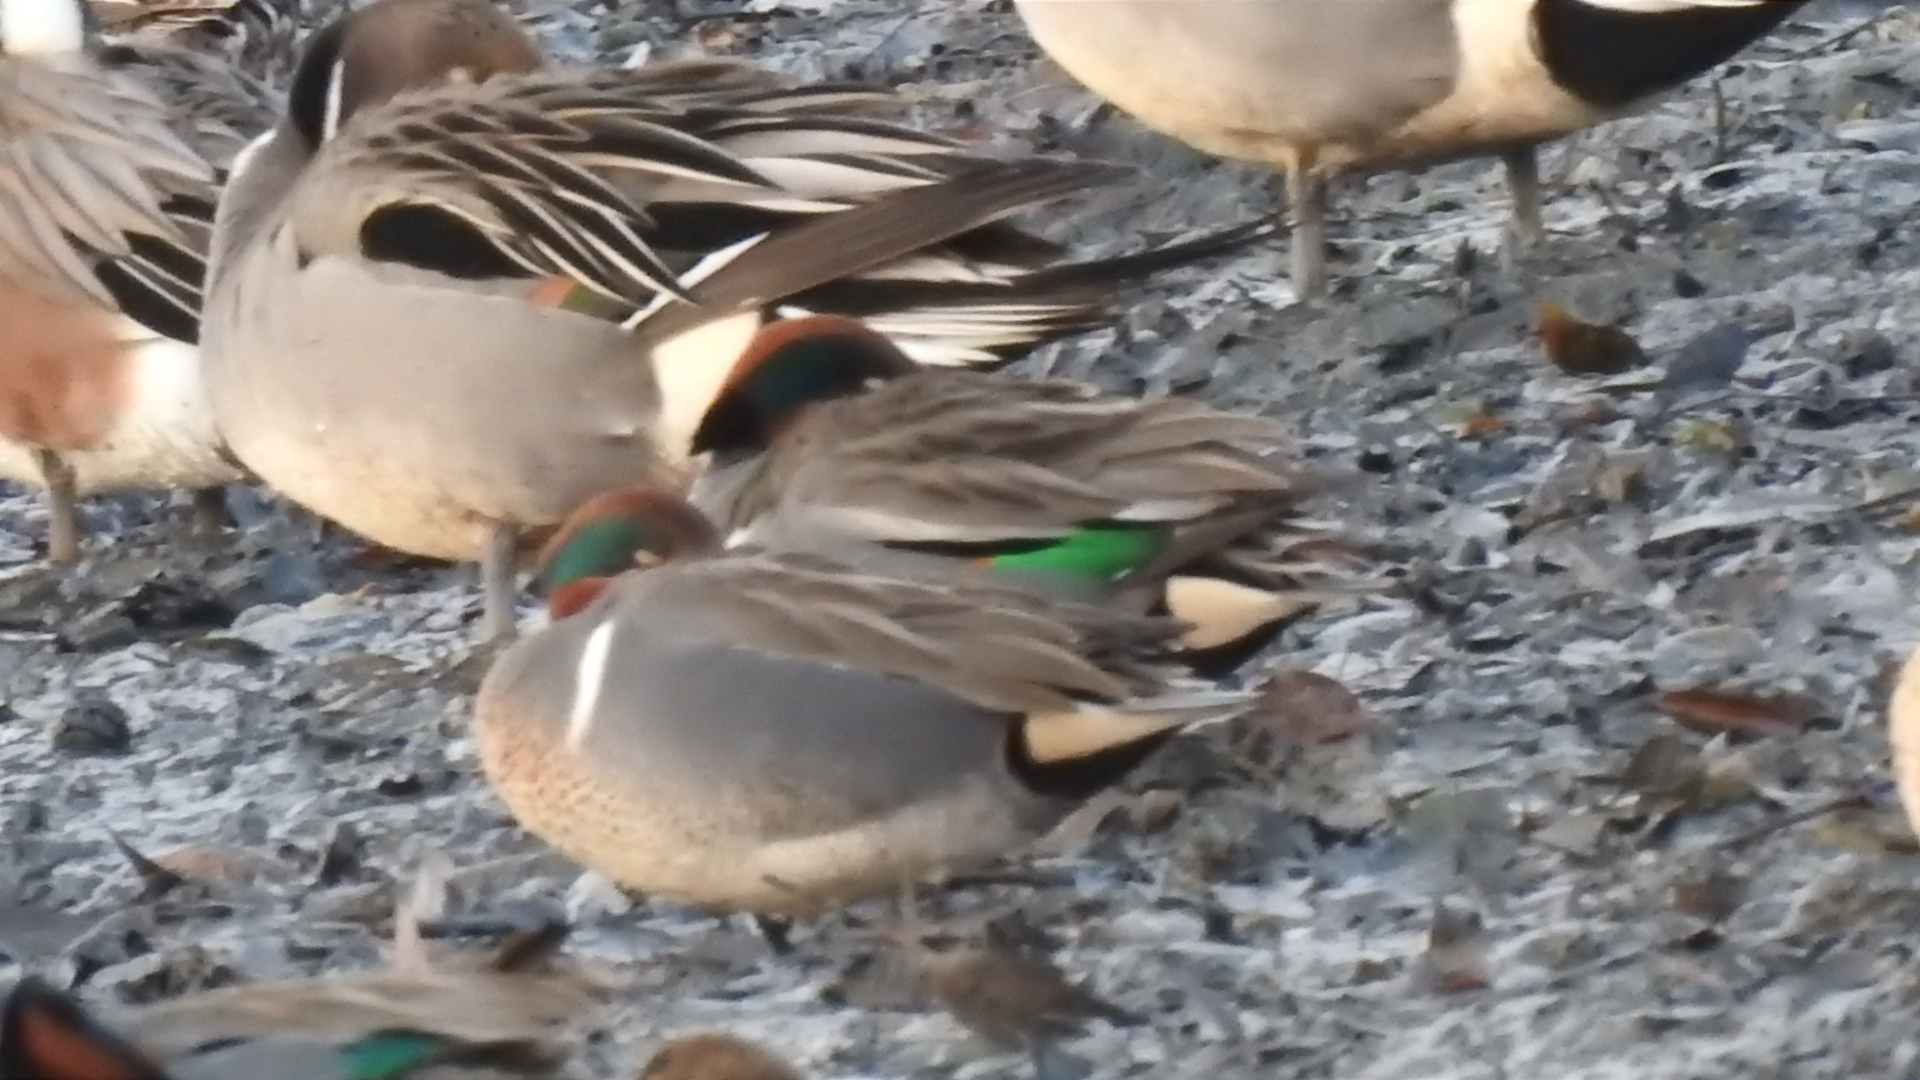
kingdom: Animalia
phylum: Chordata
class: Aves
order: Anseriformes
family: Anatidae
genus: Anas
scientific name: Anas crecca
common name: Eurasian teal
